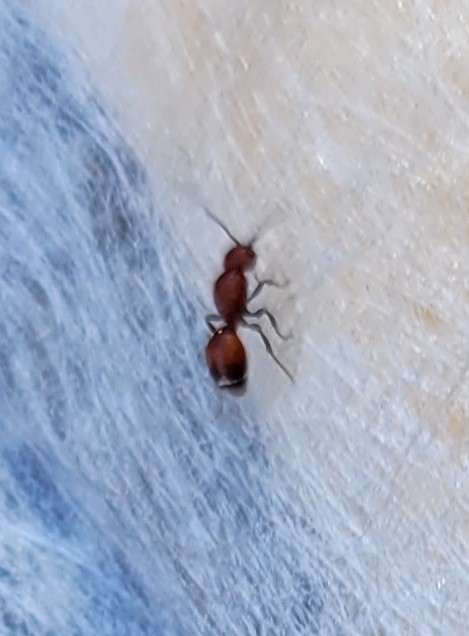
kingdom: Animalia
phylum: Arthropoda
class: Insecta
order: Hymenoptera
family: Mutillidae
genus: Sphaeropthalma
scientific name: Sphaeropthalma
